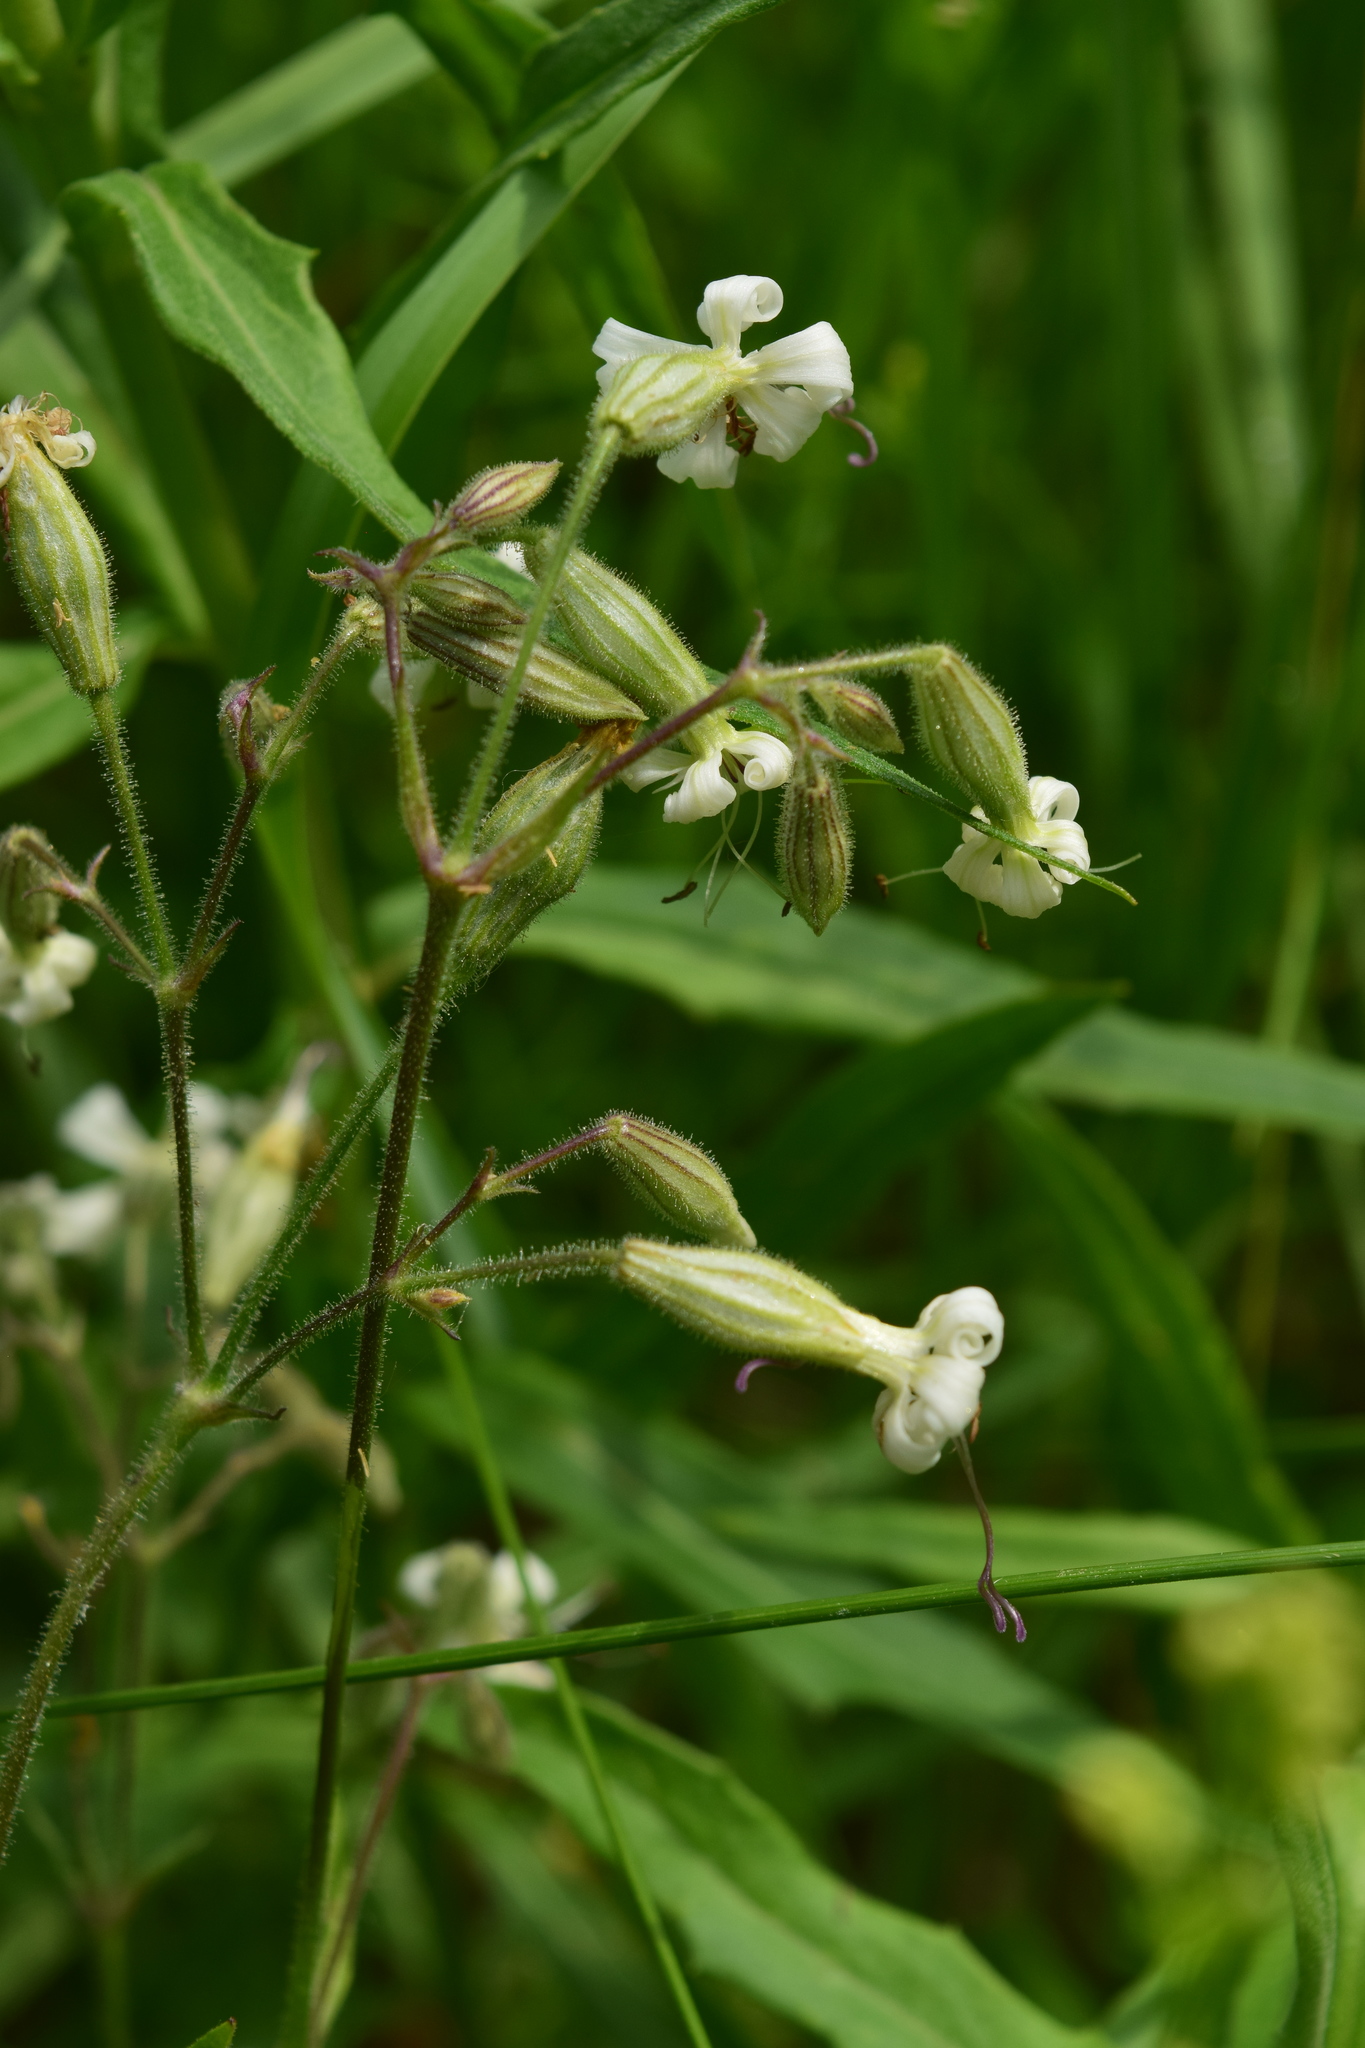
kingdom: Plantae
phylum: Tracheophyta
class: Magnoliopsida
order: Caryophyllales
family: Caryophyllaceae
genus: Silene
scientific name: Silene nutans
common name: Nottingham catchfly
